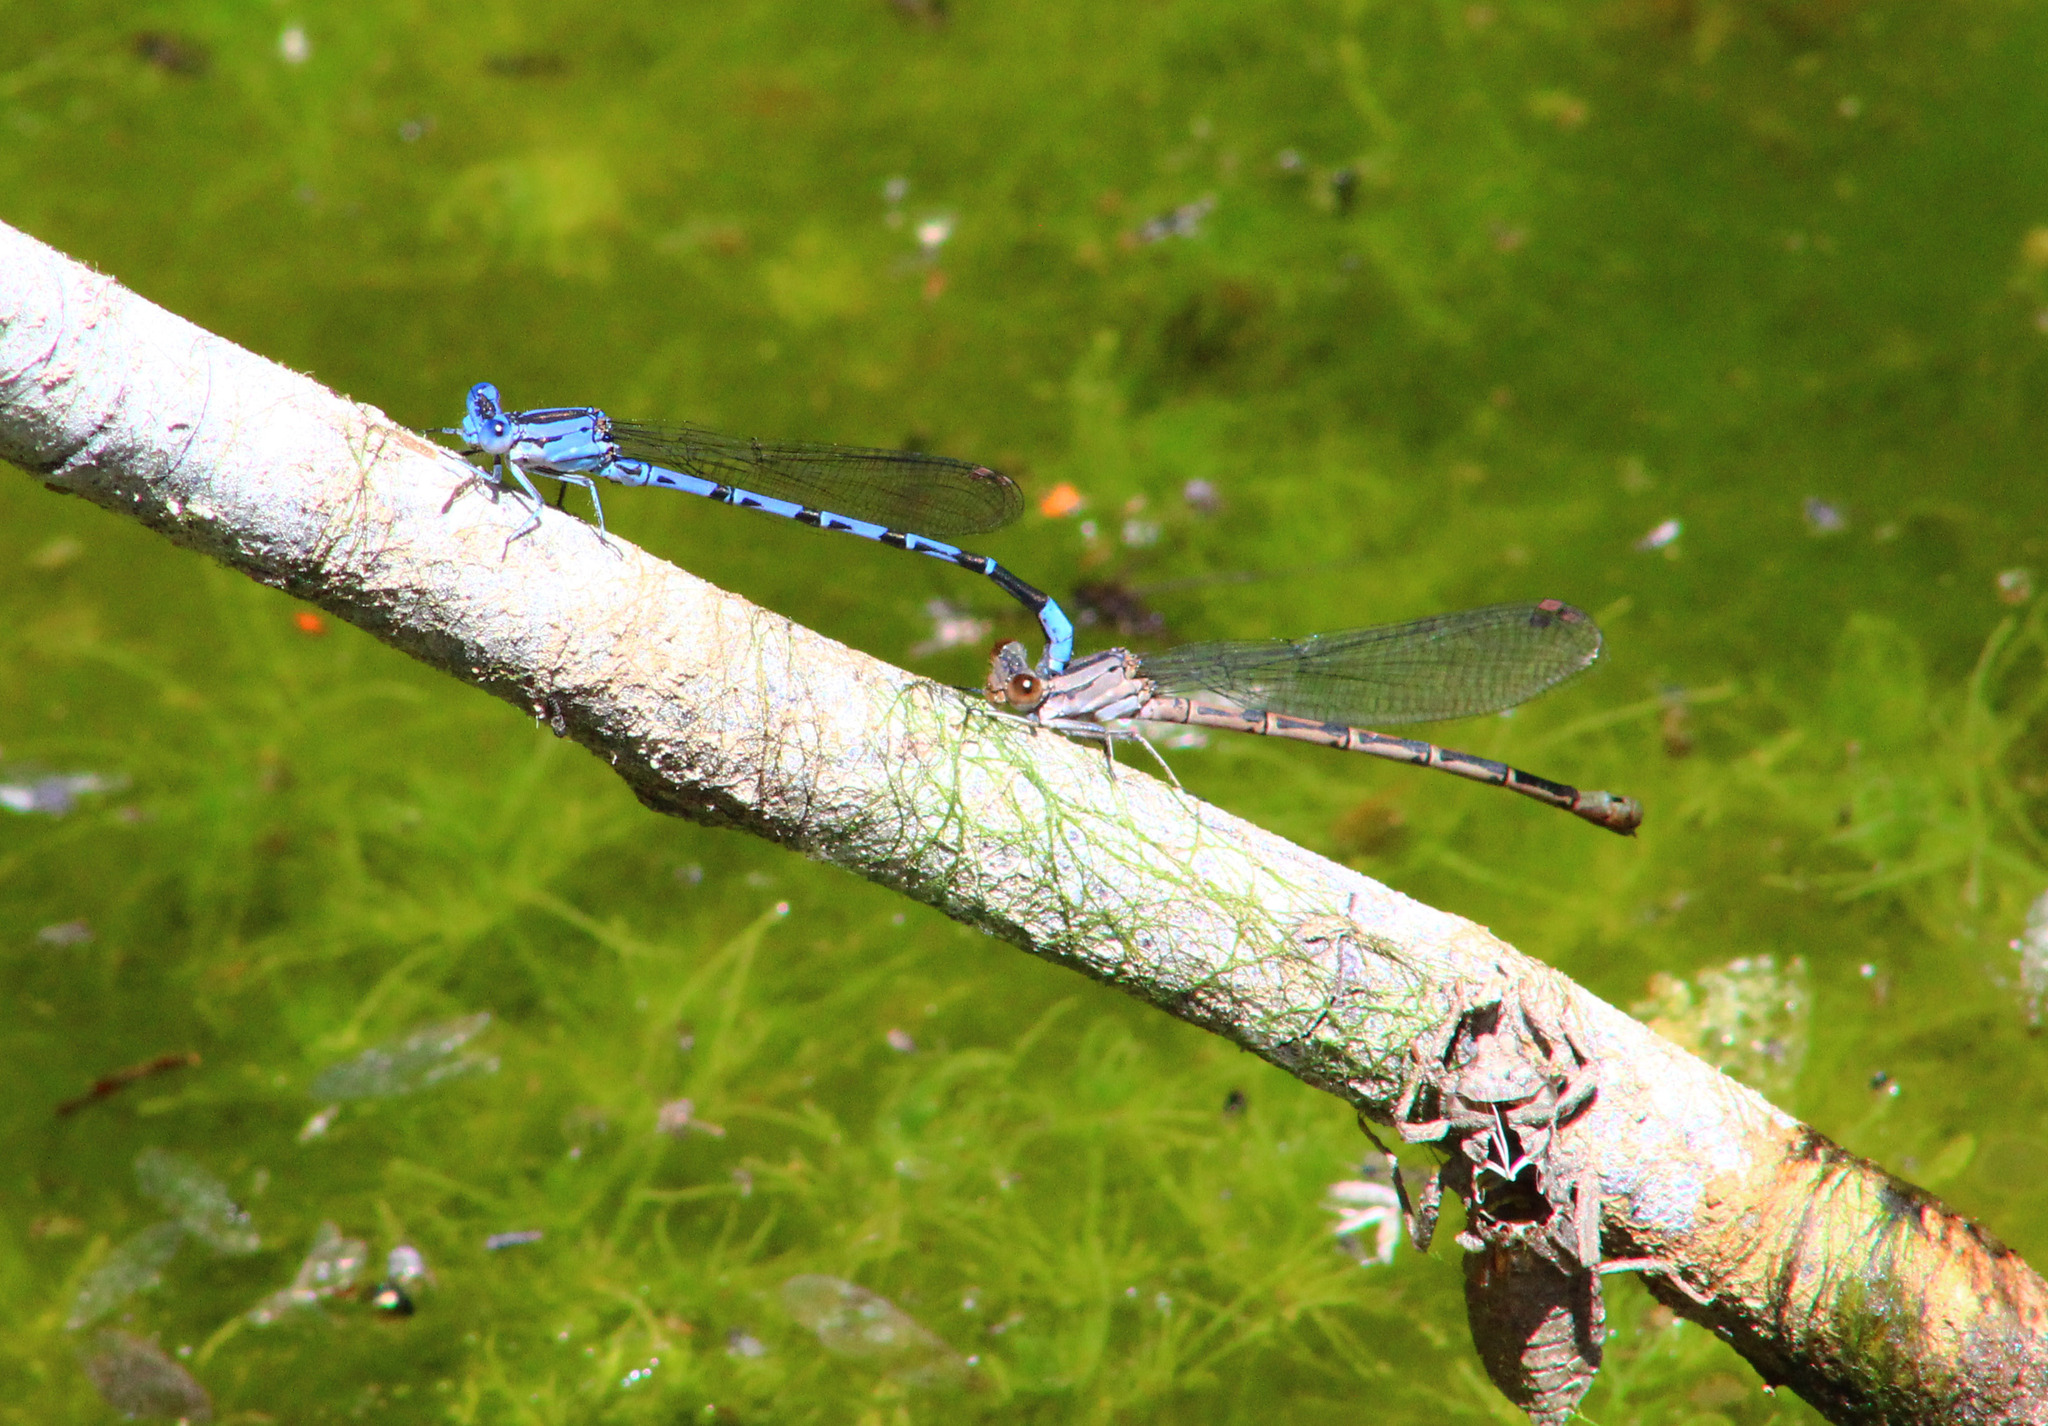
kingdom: Animalia
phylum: Arthropoda
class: Insecta
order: Odonata
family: Coenagrionidae
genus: Argia
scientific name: Argia vivida
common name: Vivid dancer
